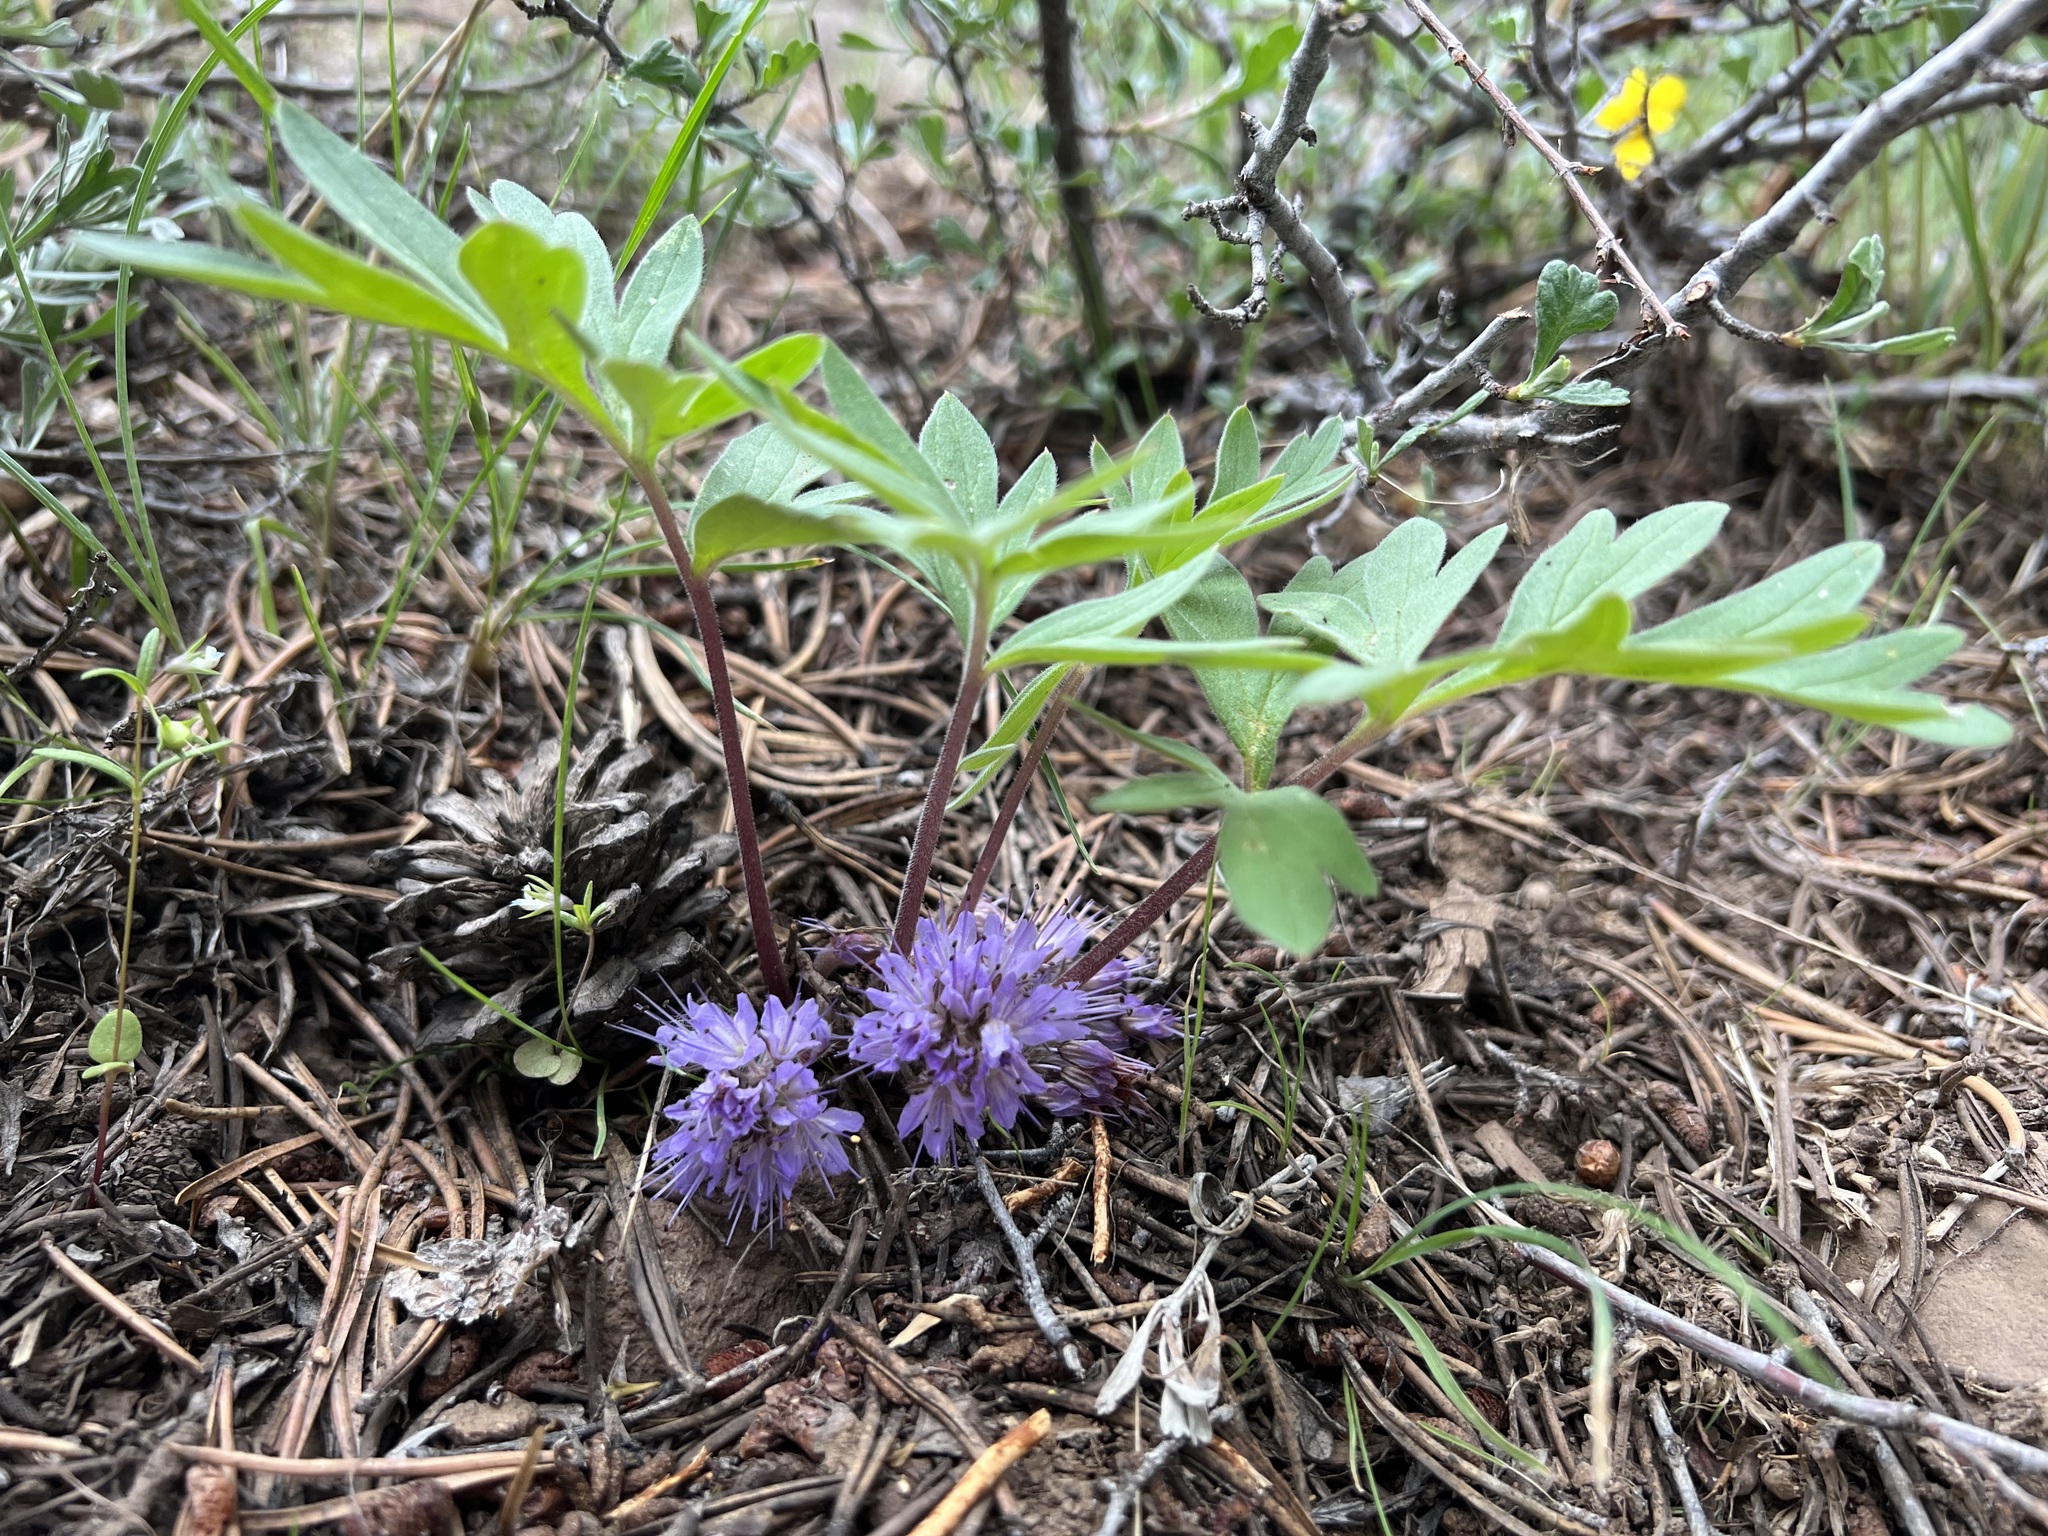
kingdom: Plantae
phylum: Tracheophyta
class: Magnoliopsida
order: Boraginales
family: Hydrophyllaceae
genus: Hydrophyllum
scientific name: Hydrophyllum alpestre
